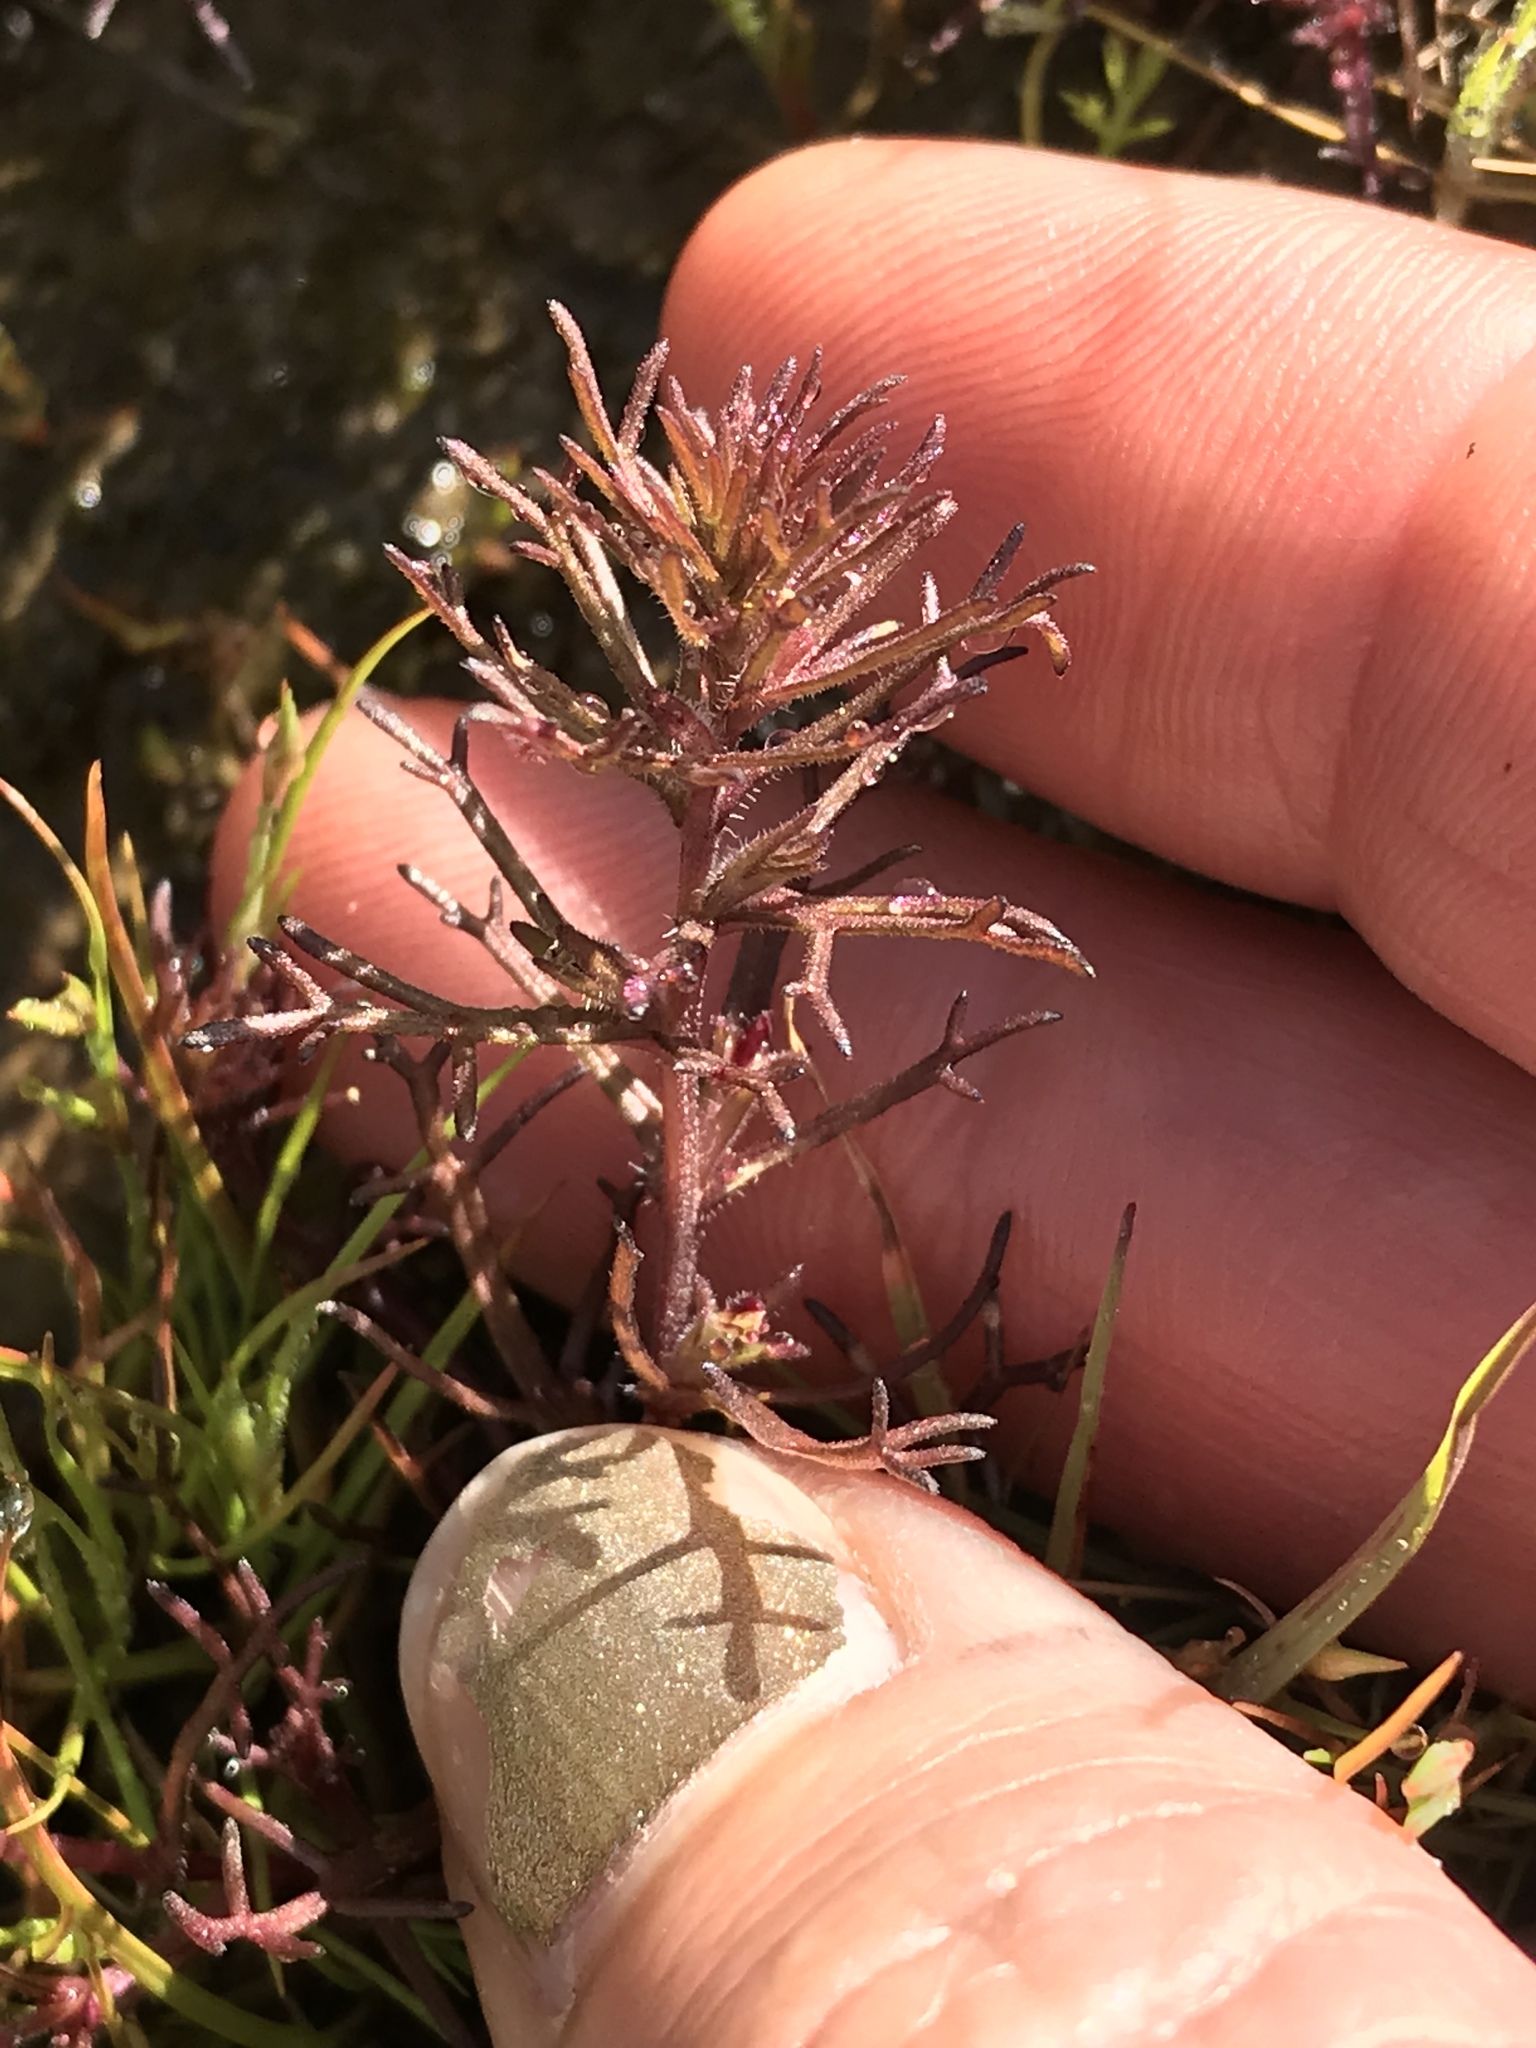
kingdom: Plantae
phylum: Tracheophyta
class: Magnoliopsida
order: Lamiales
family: Orobanchaceae
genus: Triphysaria
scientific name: Triphysaria pusilla
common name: Dwarf false owl-clover
